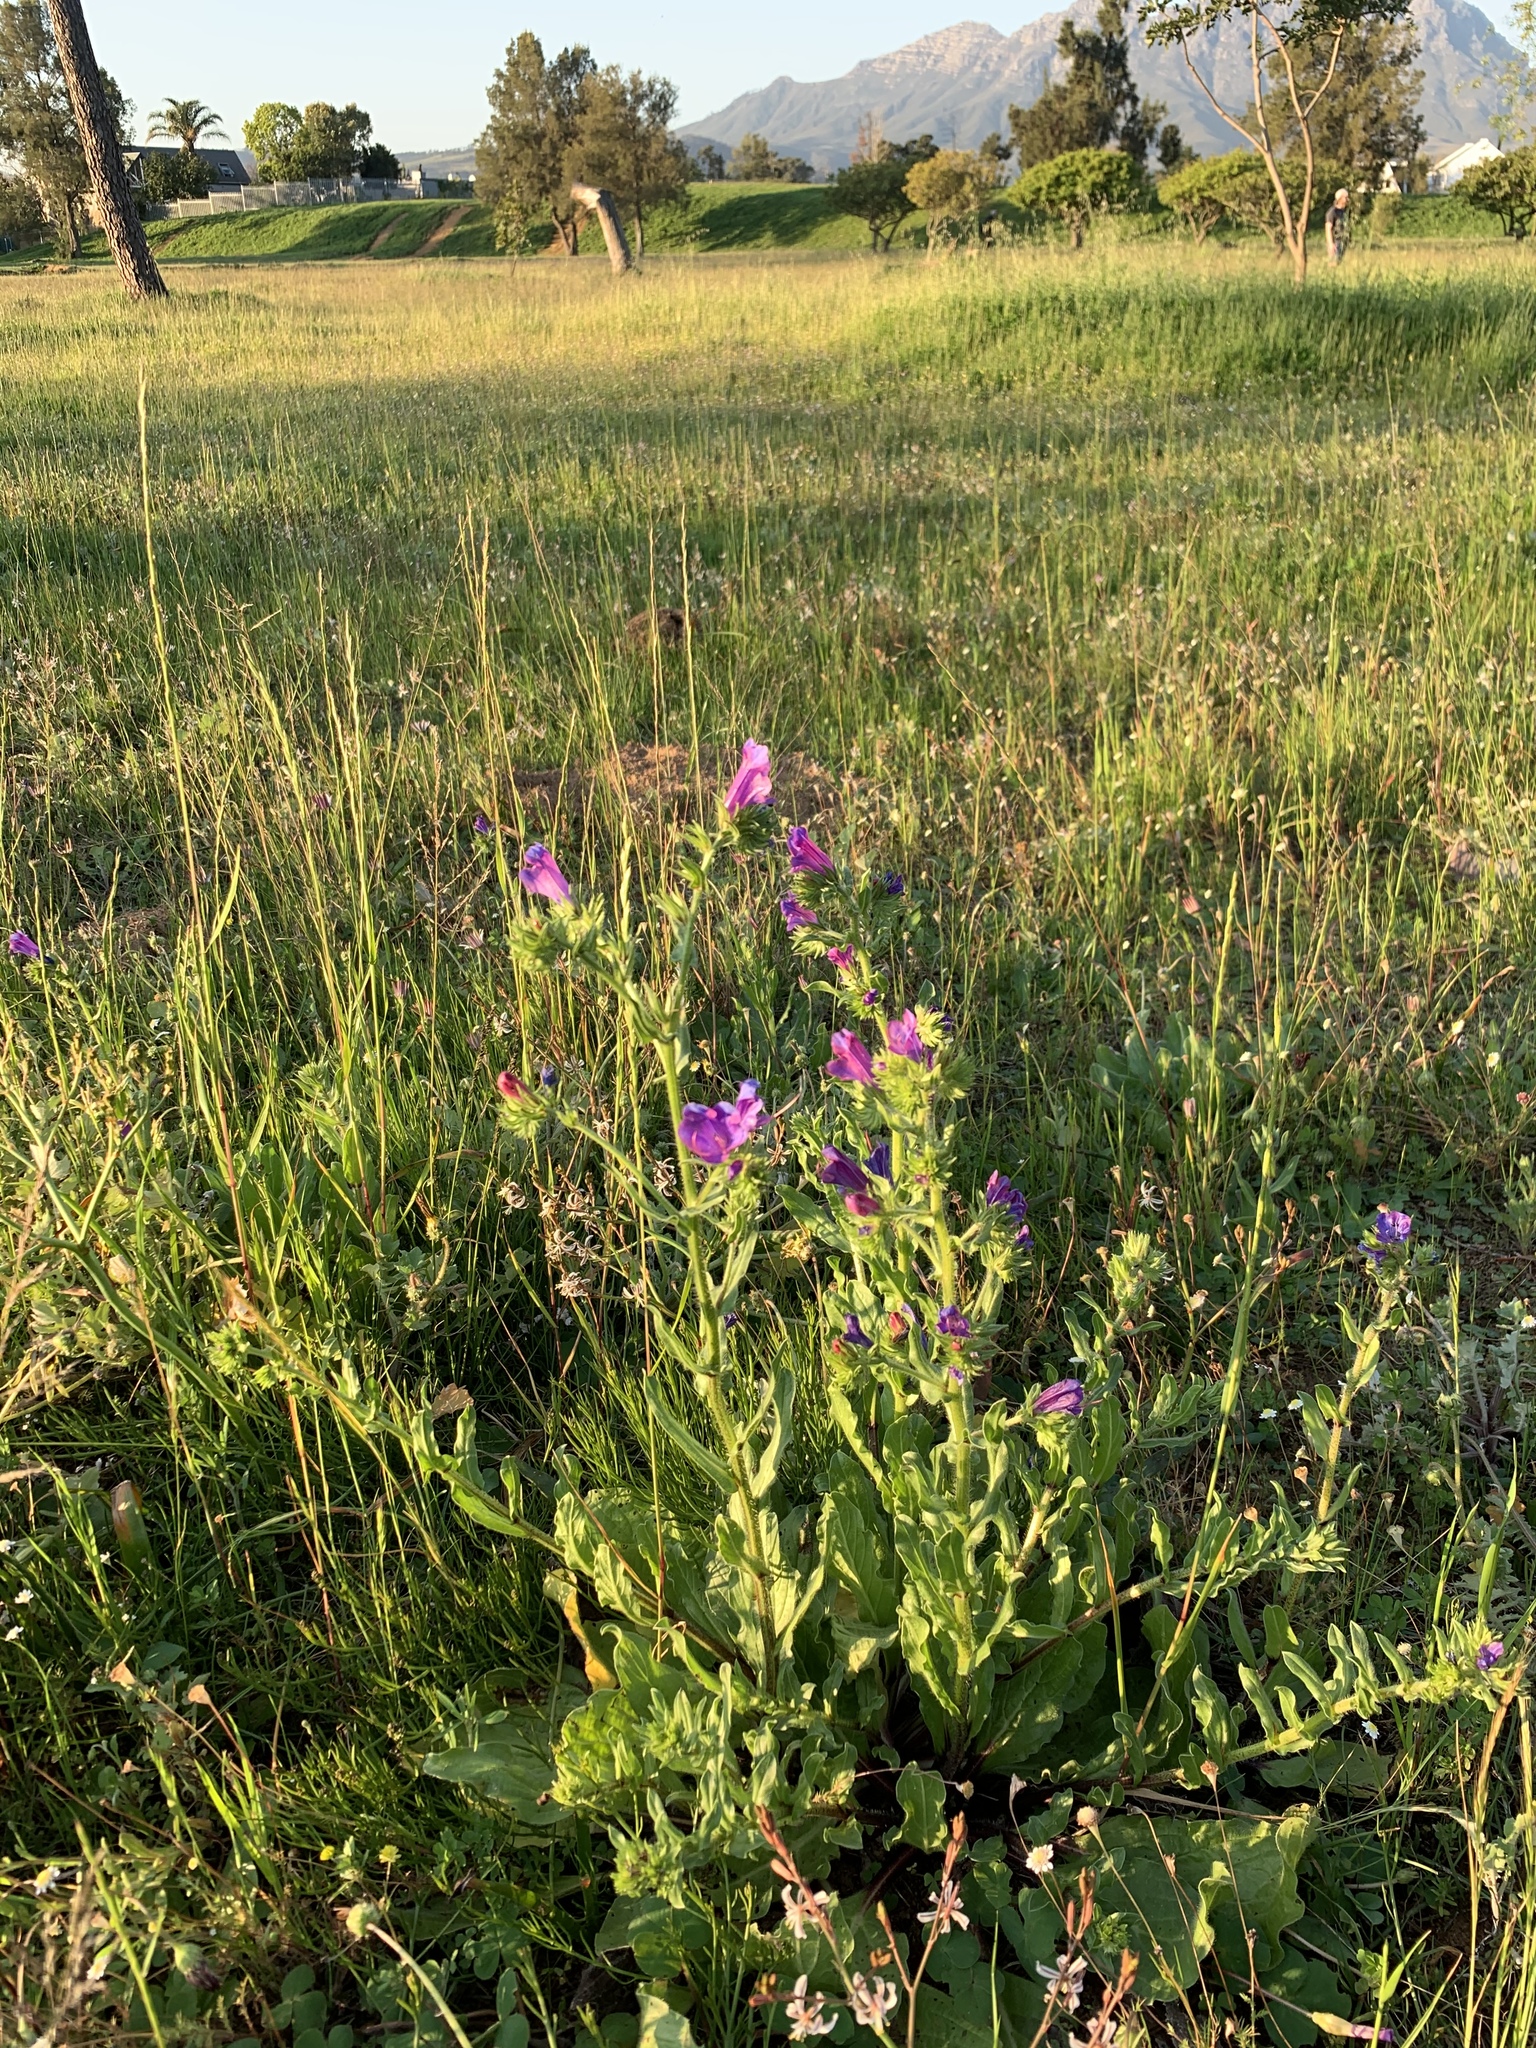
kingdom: Plantae
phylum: Tracheophyta
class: Magnoliopsida
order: Boraginales
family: Boraginaceae
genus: Echium
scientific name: Echium plantagineum
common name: Purple viper's-bugloss
